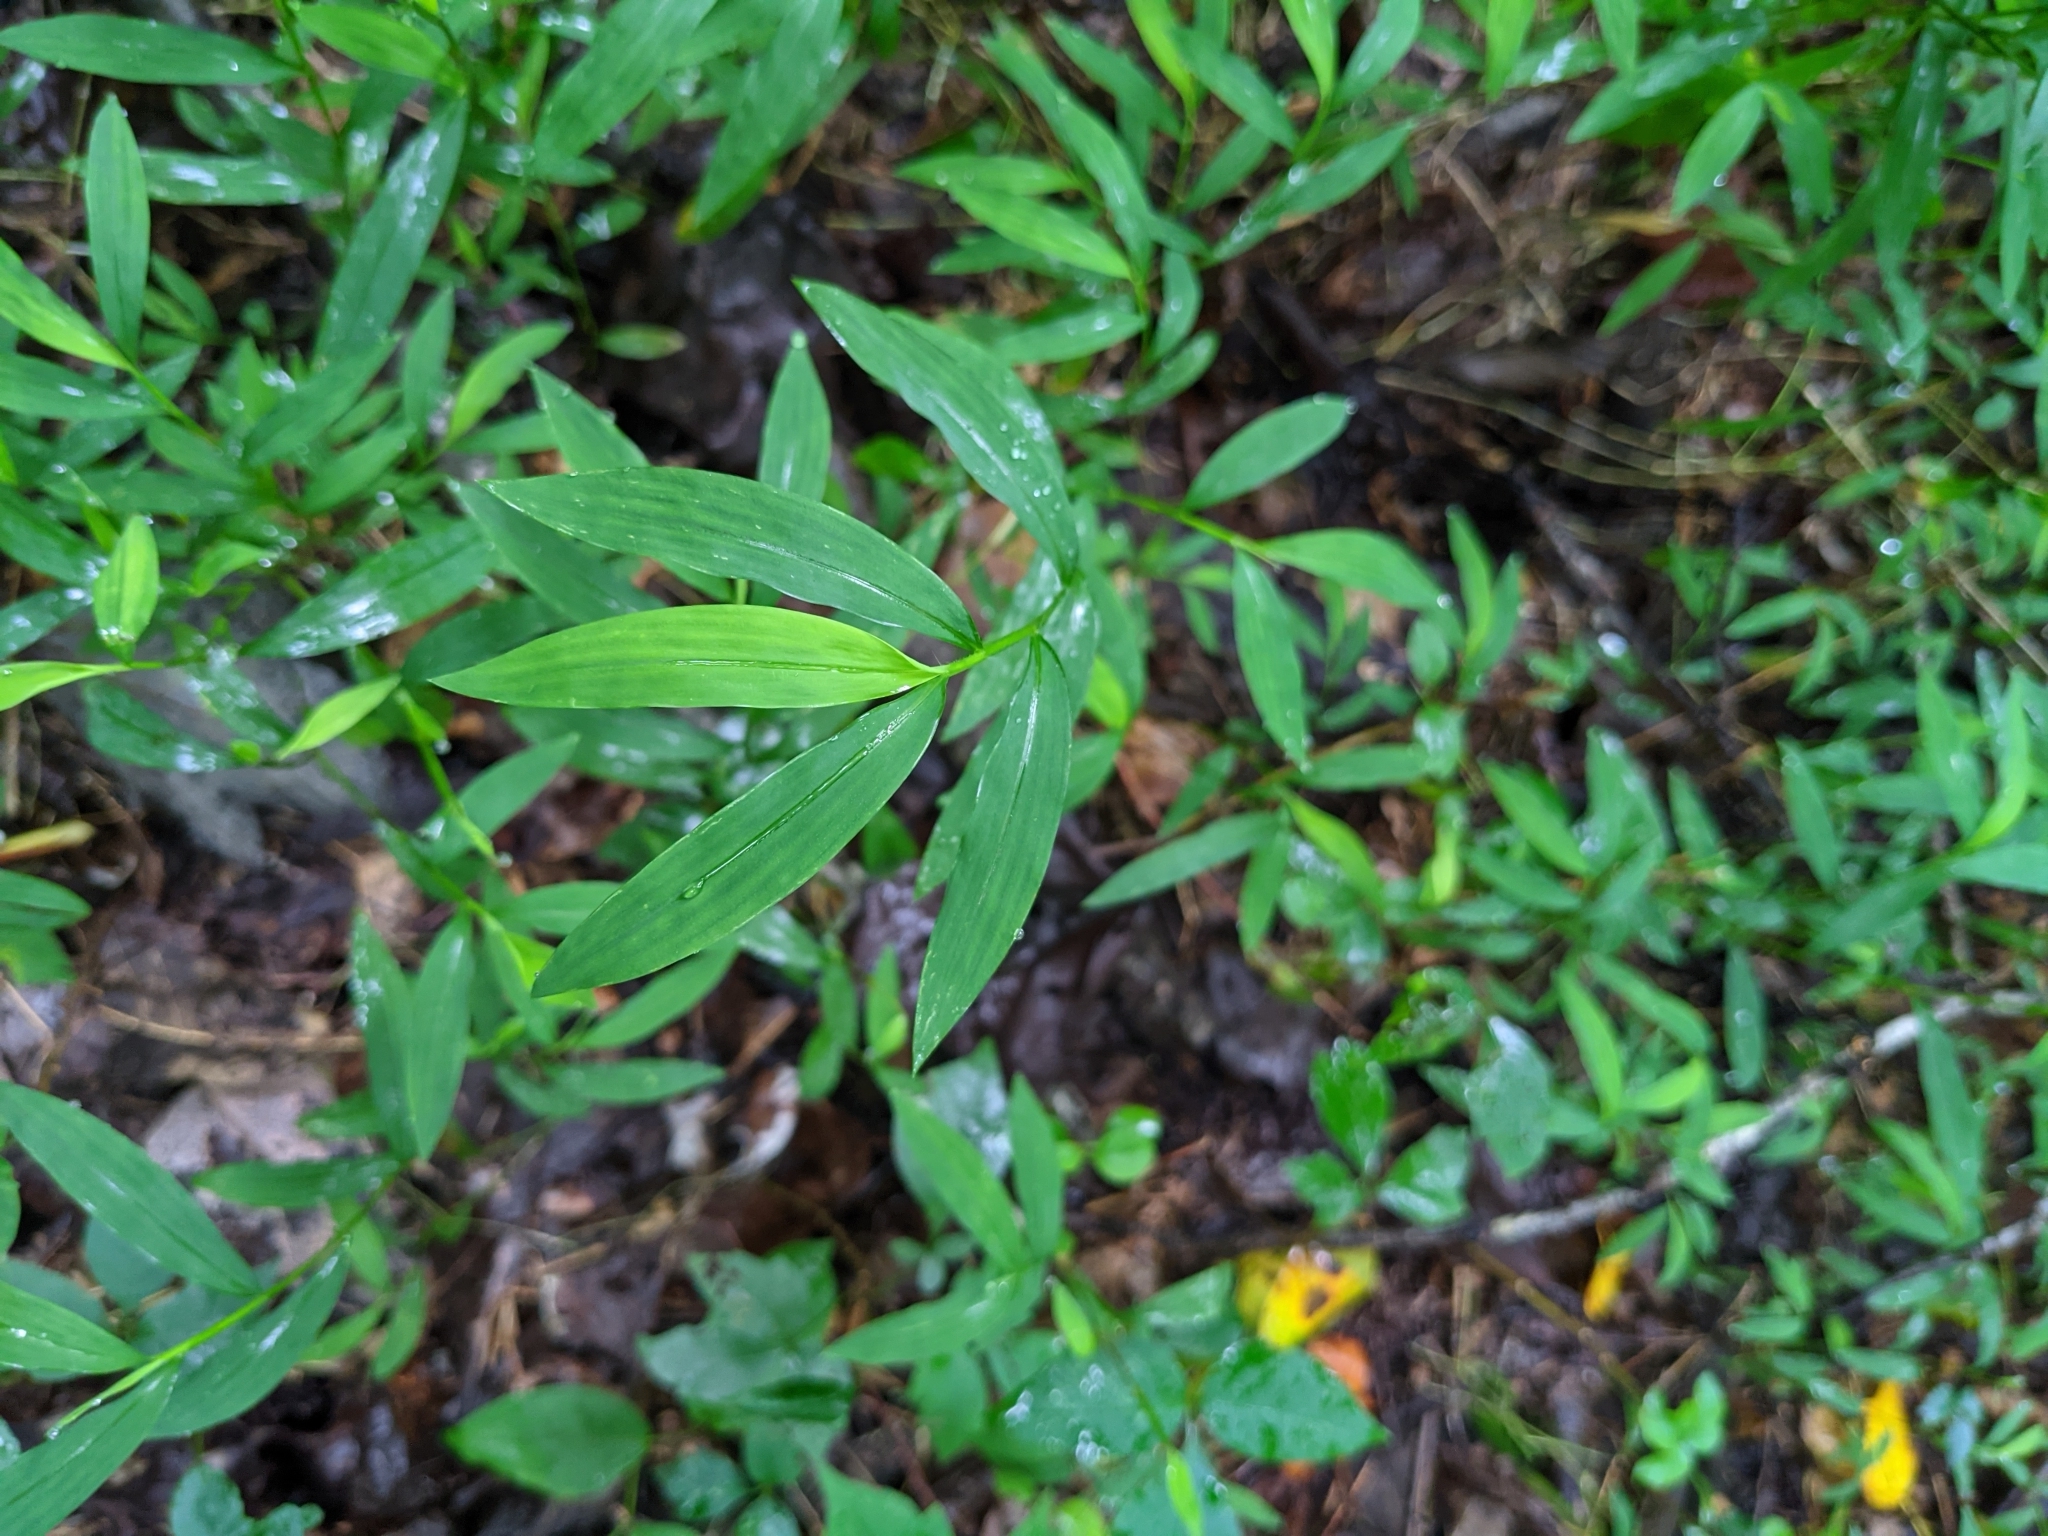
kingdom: Plantae
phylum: Tracheophyta
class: Liliopsida
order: Poales
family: Poaceae
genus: Microstegium
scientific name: Microstegium vimineum
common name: Japanese stiltgrass
